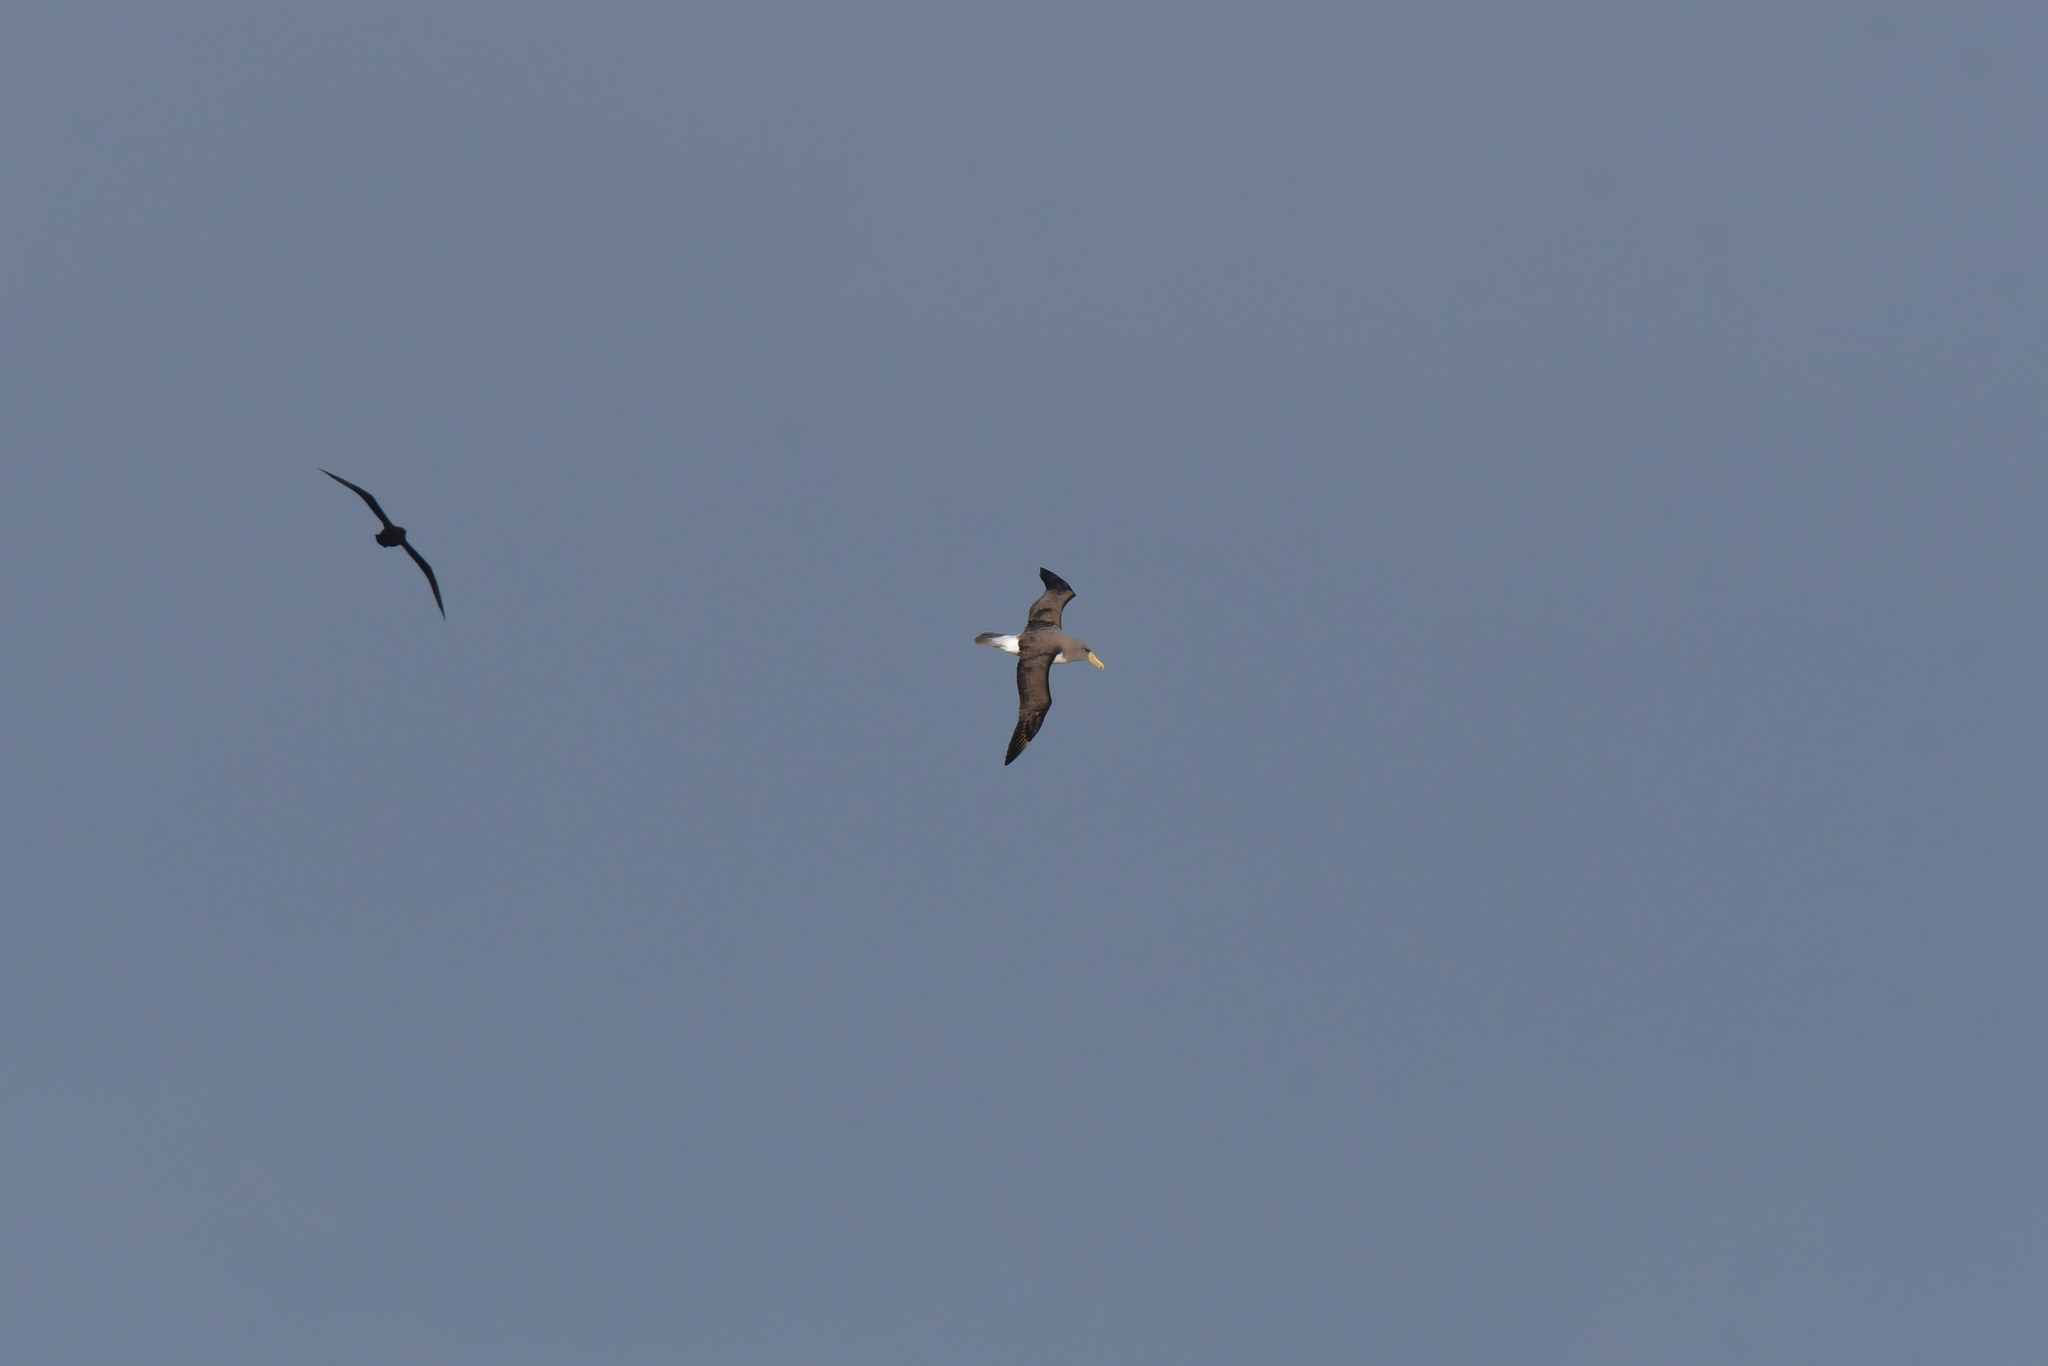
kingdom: Animalia
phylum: Chordata
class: Aves
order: Procellariiformes
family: Diomedeidae
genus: Thalassarche
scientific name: Thalassarche eremita
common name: Chatham albatross
